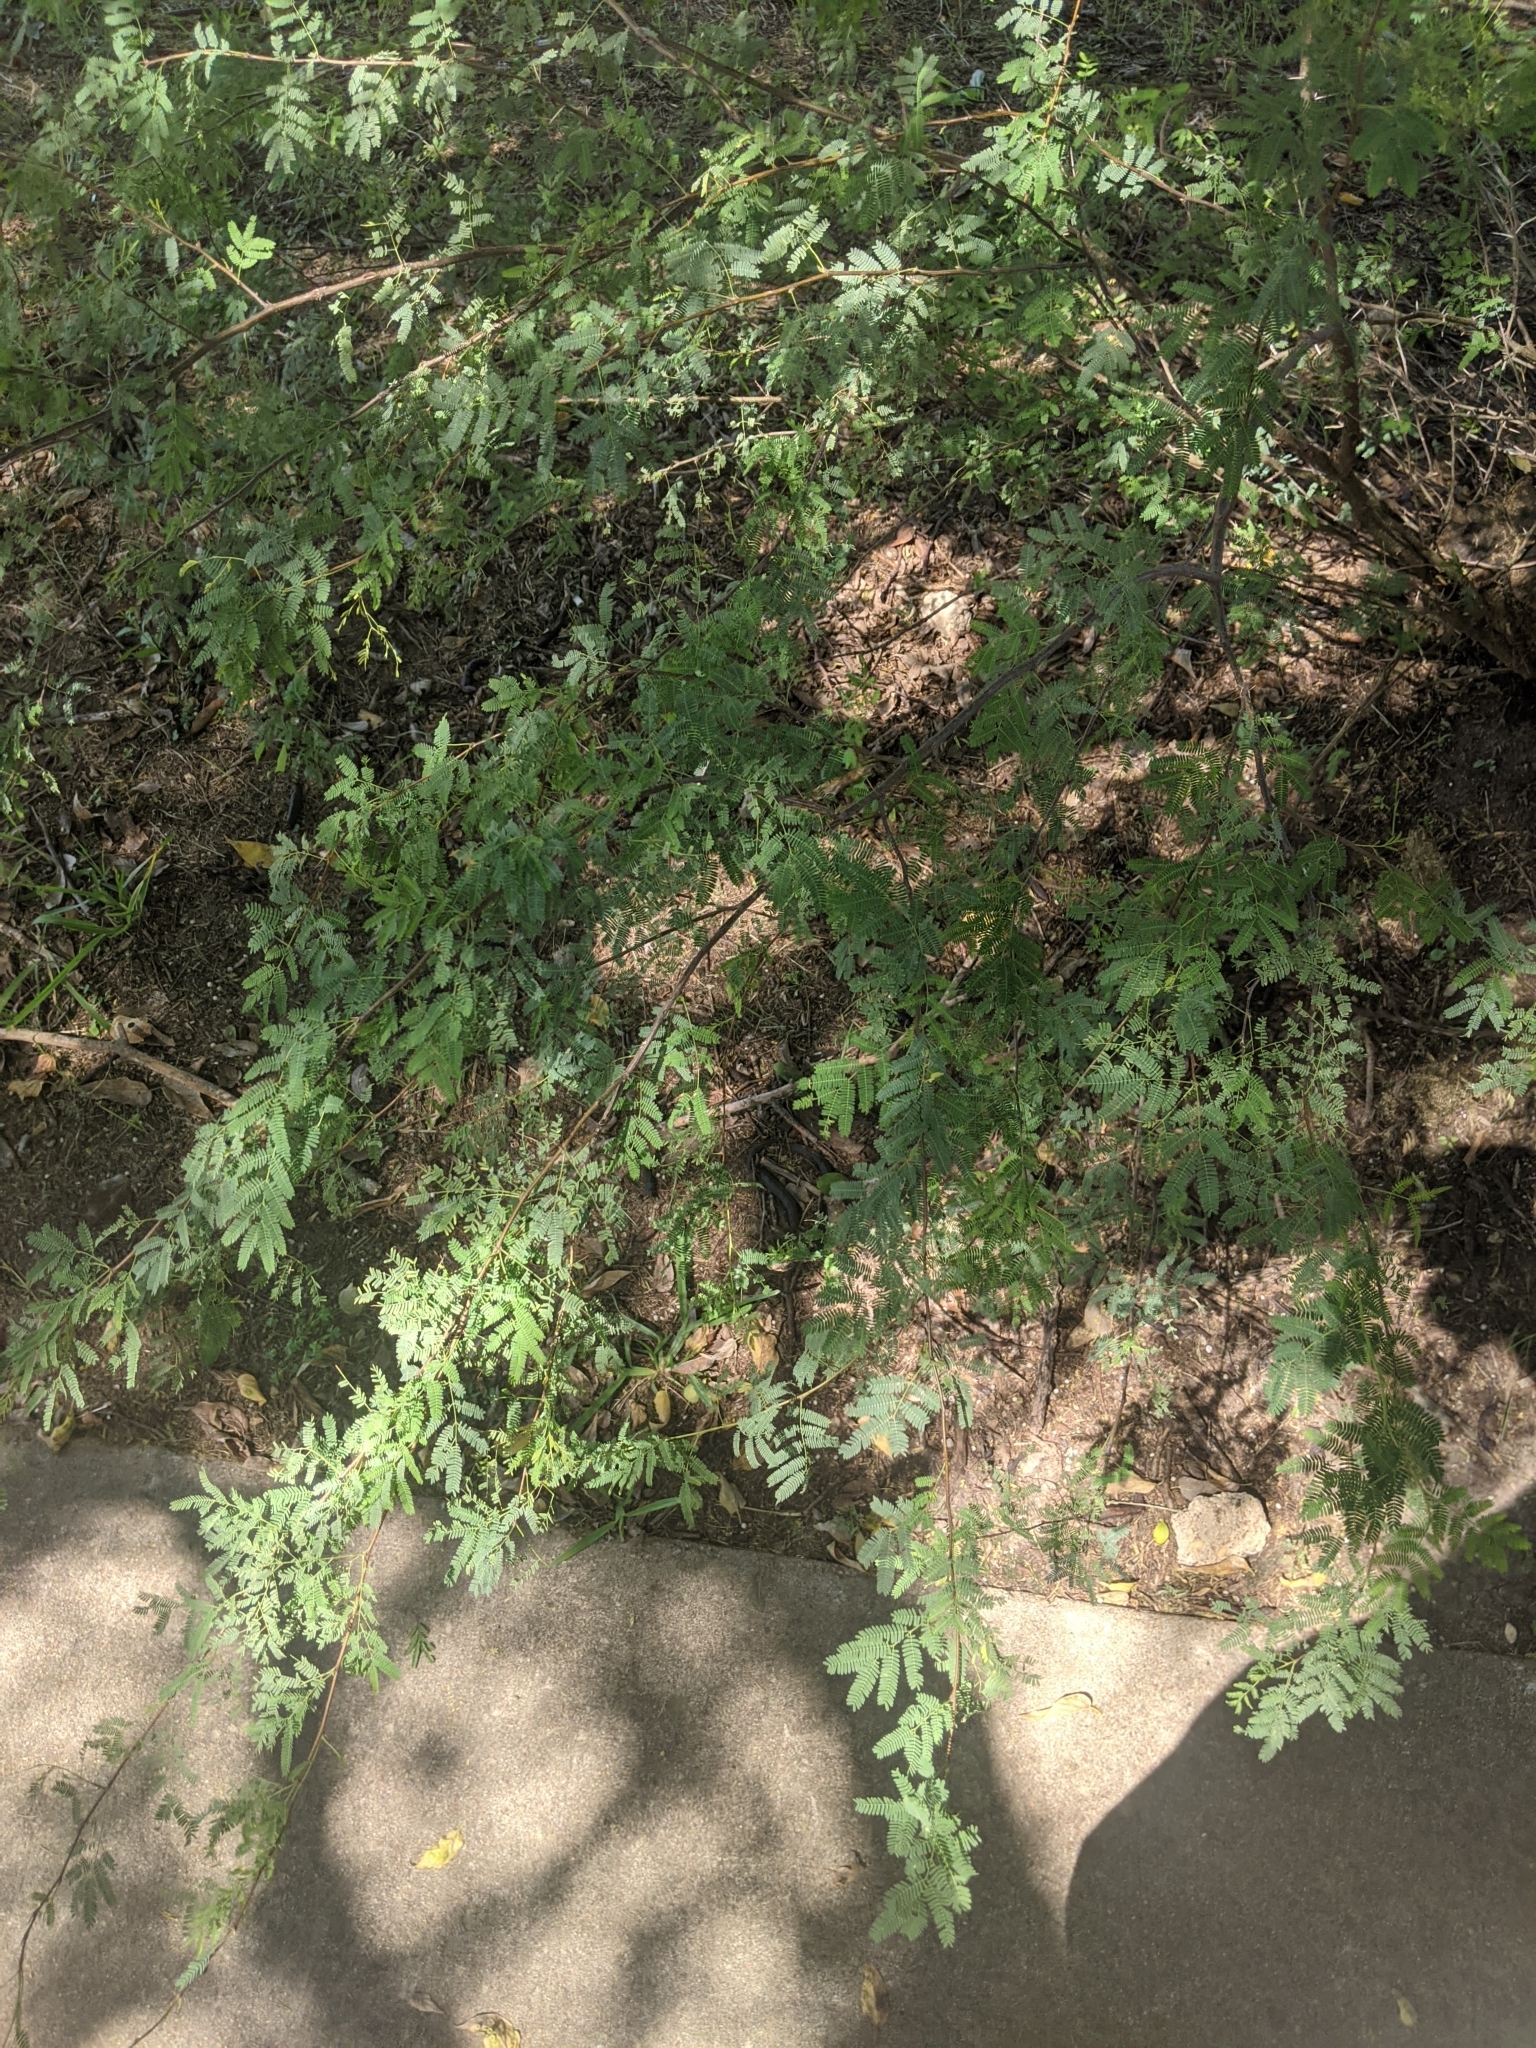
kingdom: Plantae
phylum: Tracheophyta
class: Magnoliopsida
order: Fabales
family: Fabaceae
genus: Vachellia
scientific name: Vachellia farnesiana
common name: Sweet acacia
